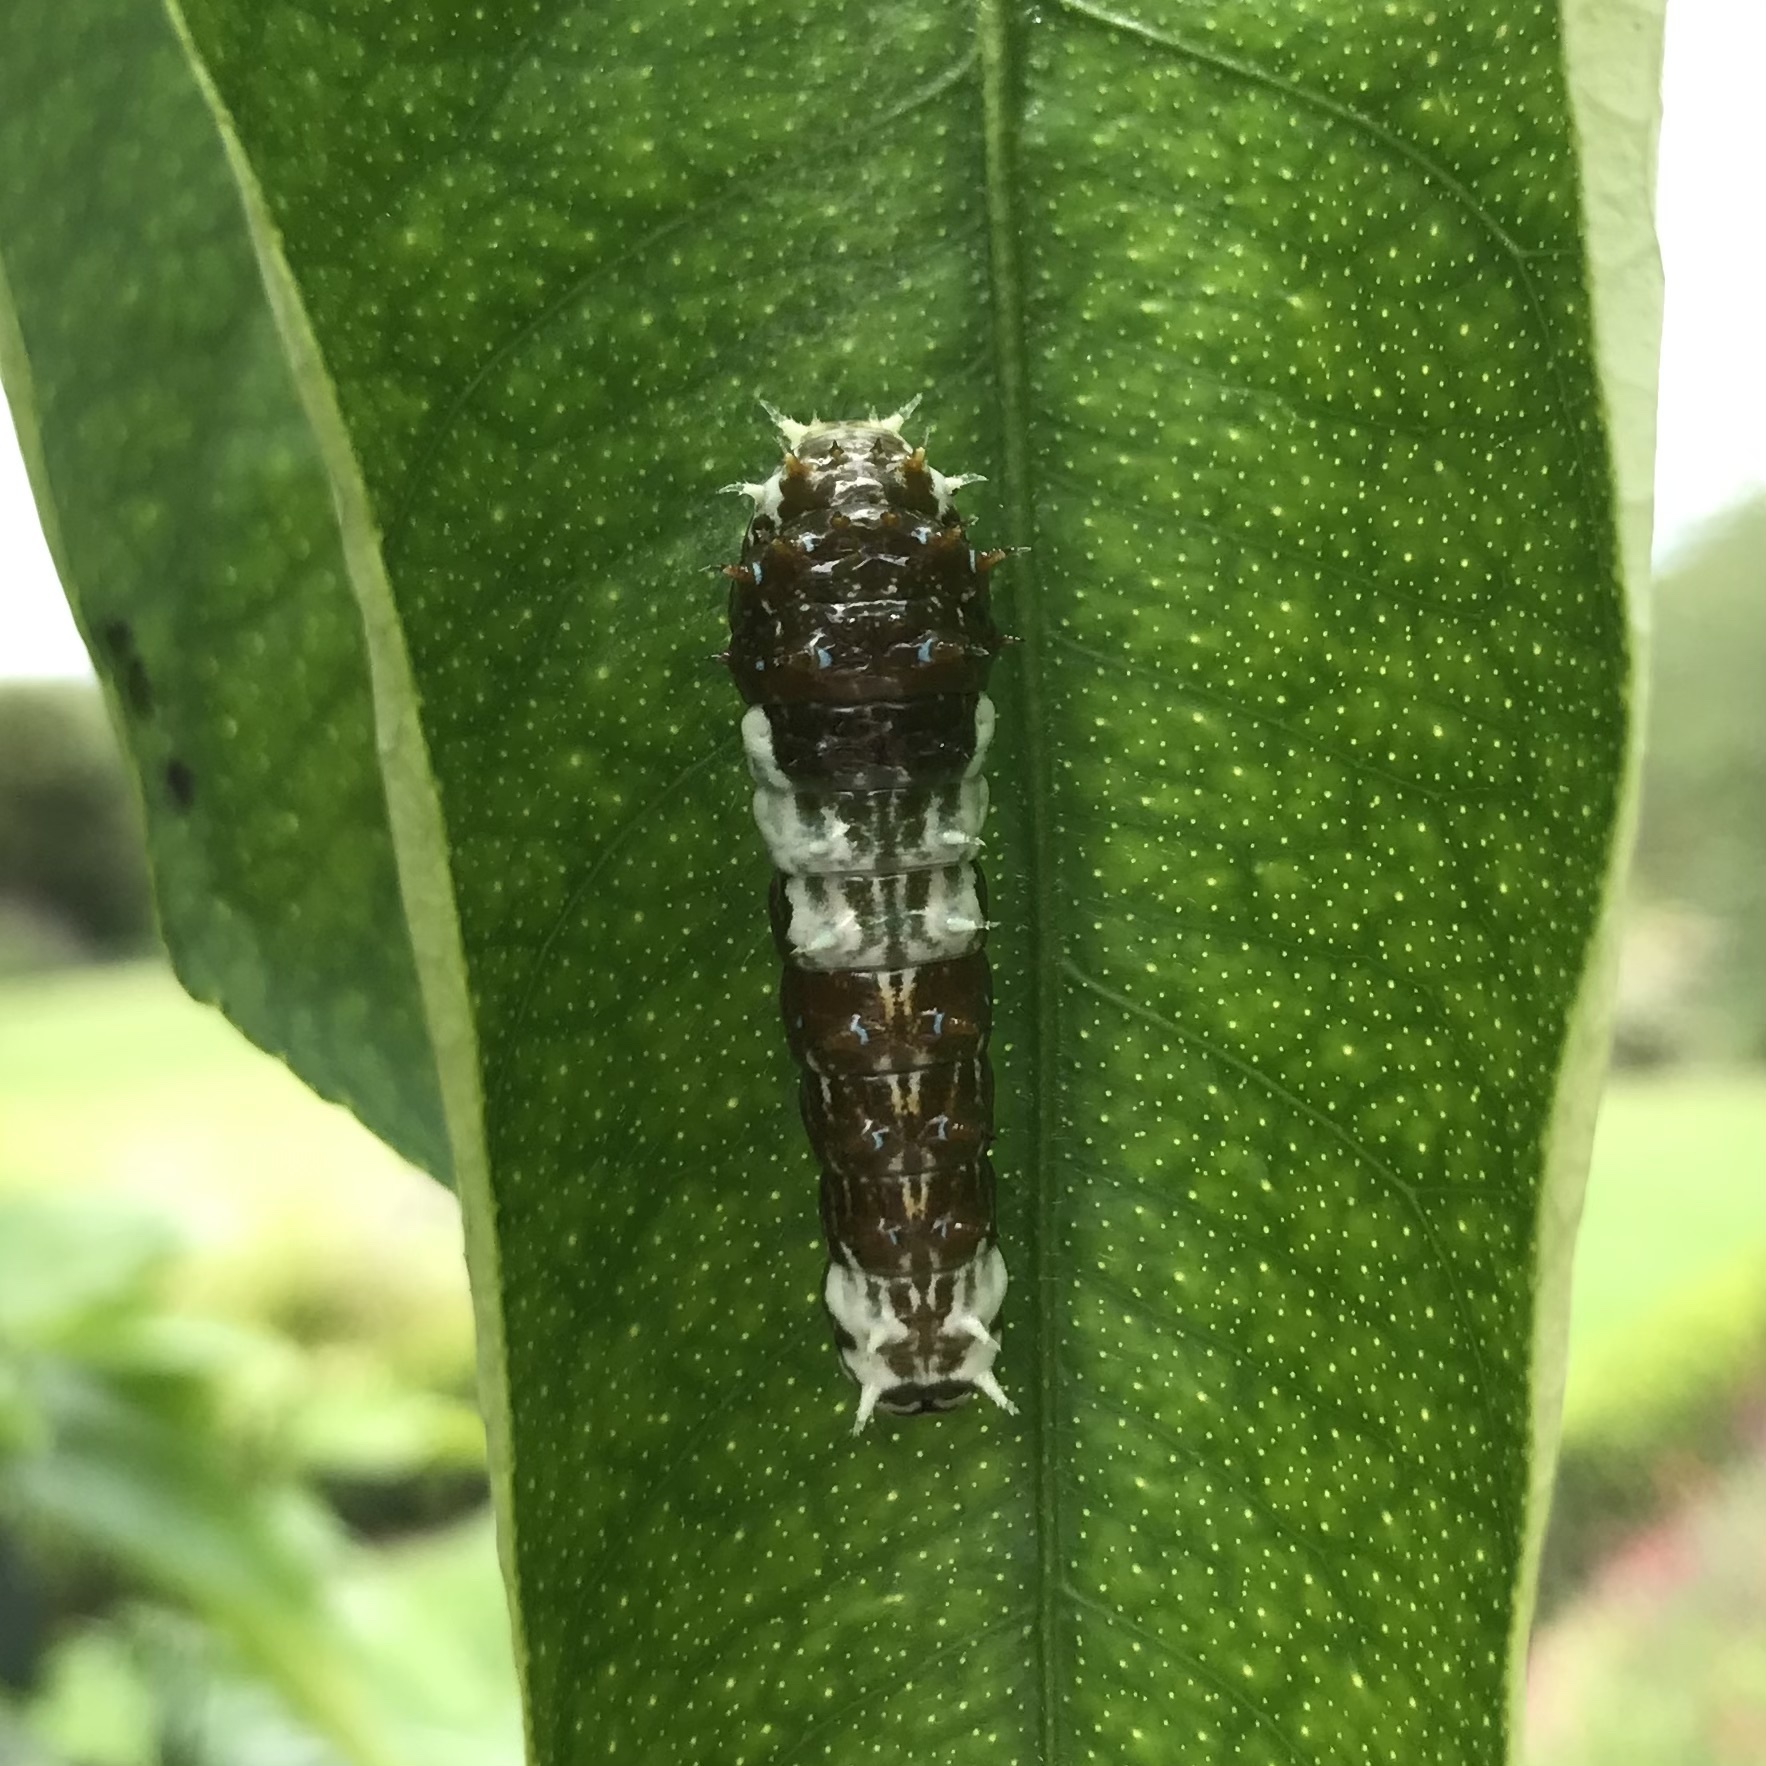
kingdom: Animalia
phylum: Arthropoda
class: Insecta
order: Lepidoptera
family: Papilionidae
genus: Papilio
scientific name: Papilio aegeus
